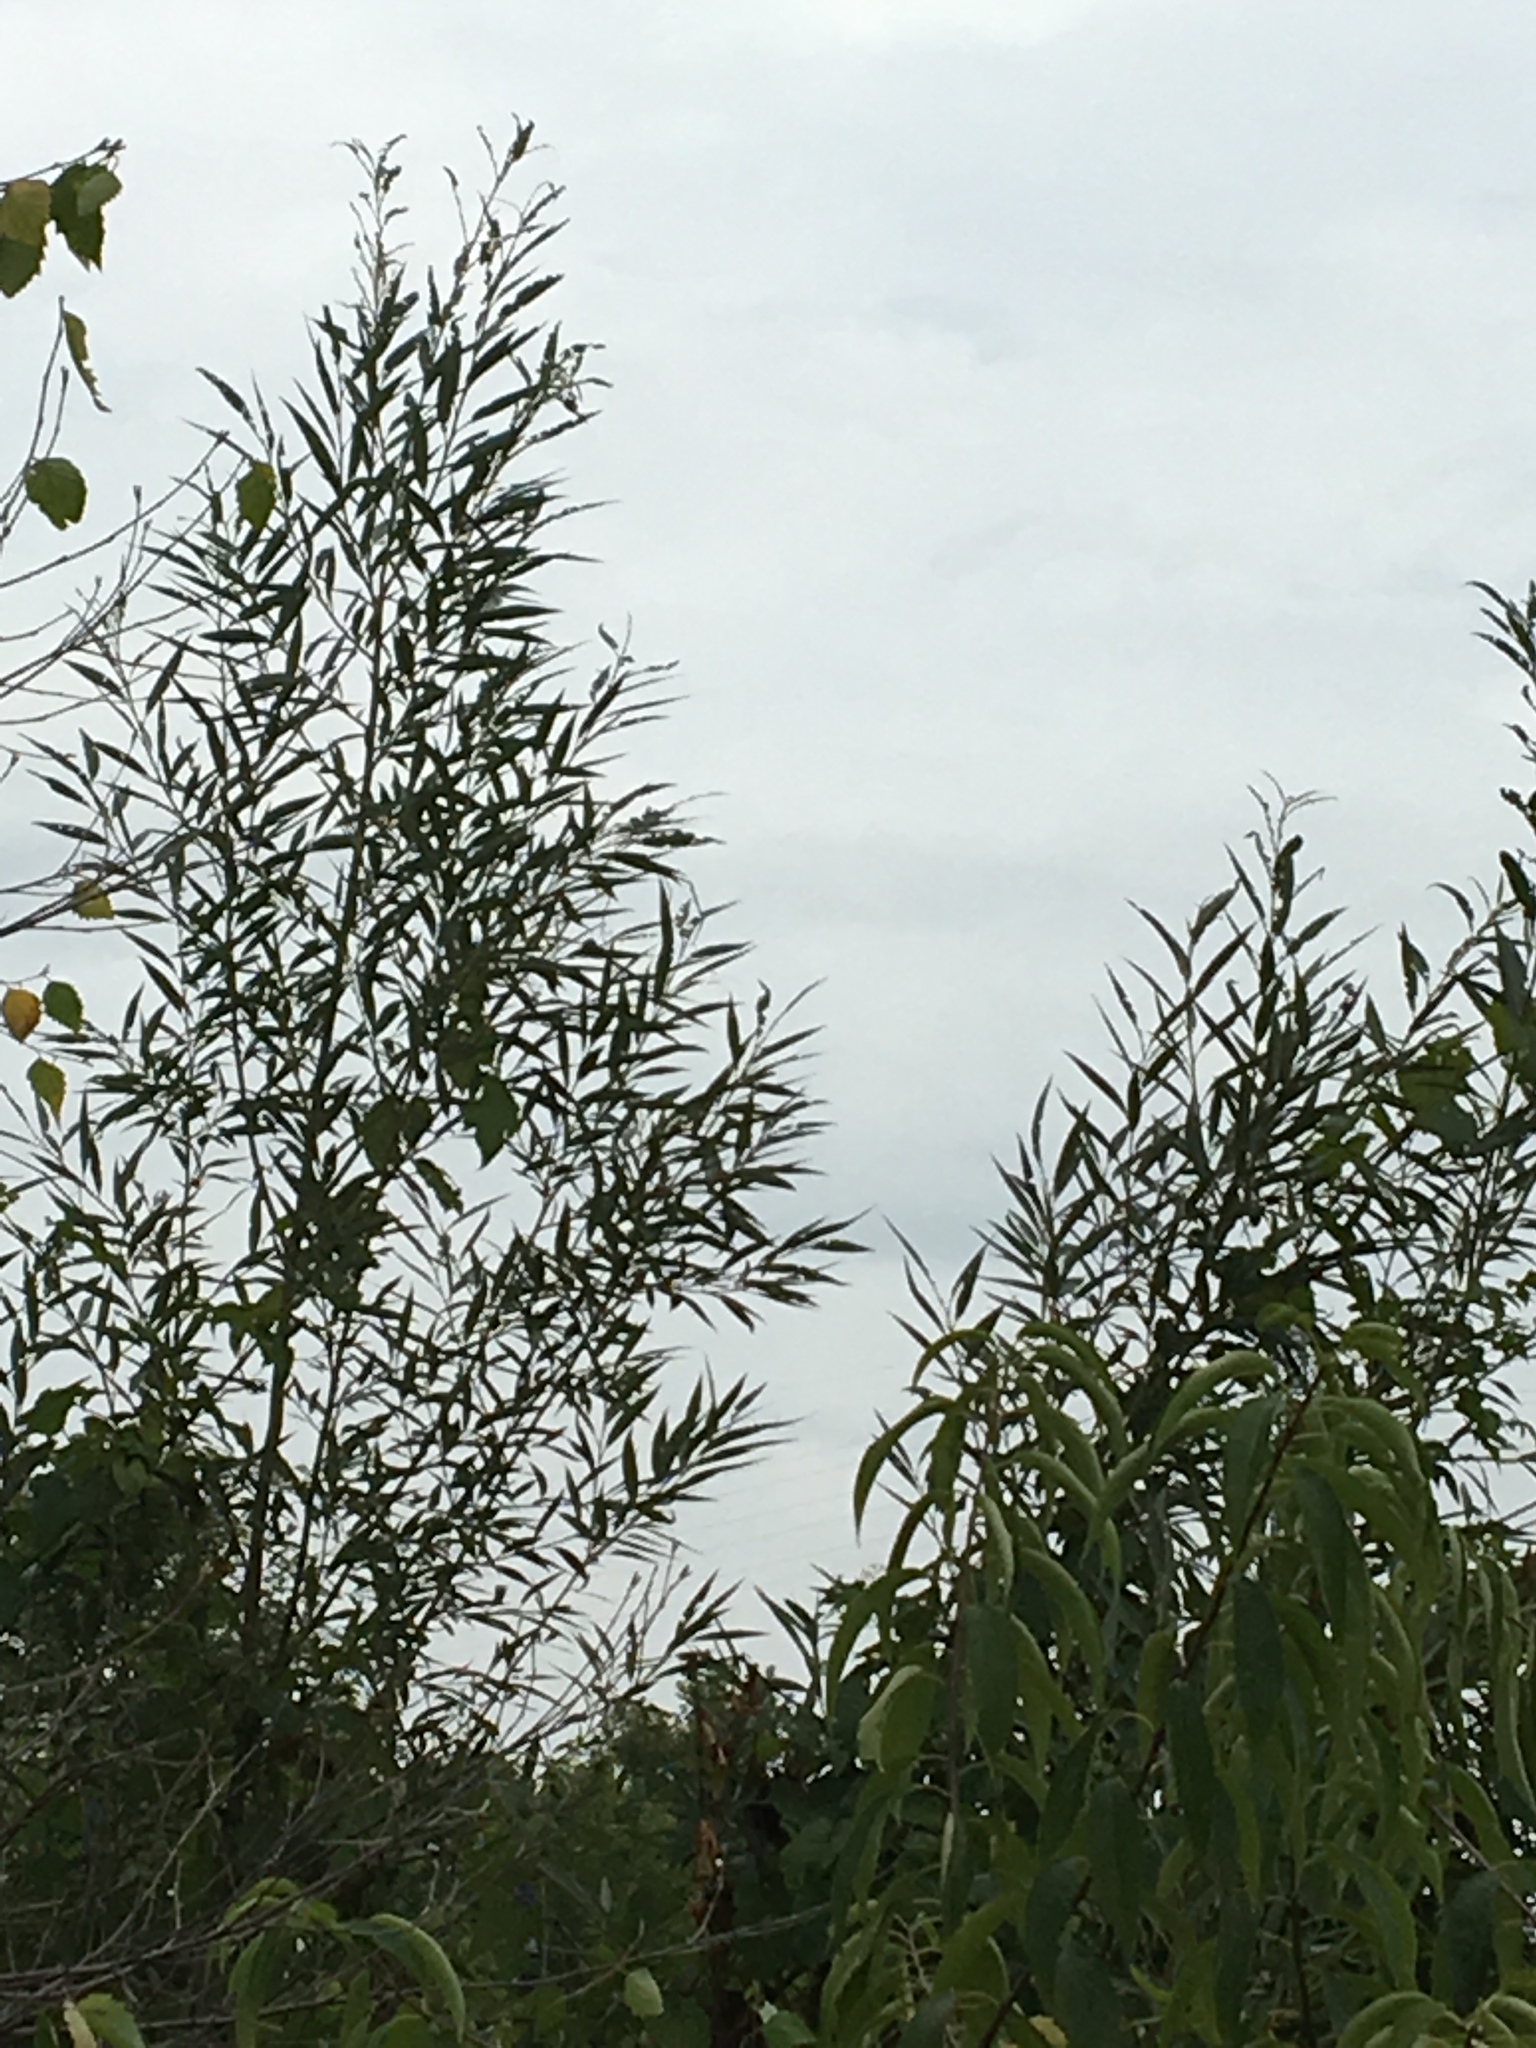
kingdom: Plantae
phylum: Tracheophyta
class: Magnoliopsida
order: Malpighiales
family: Salicaceae
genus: Salix
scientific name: Salix nigra
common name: Black willow
